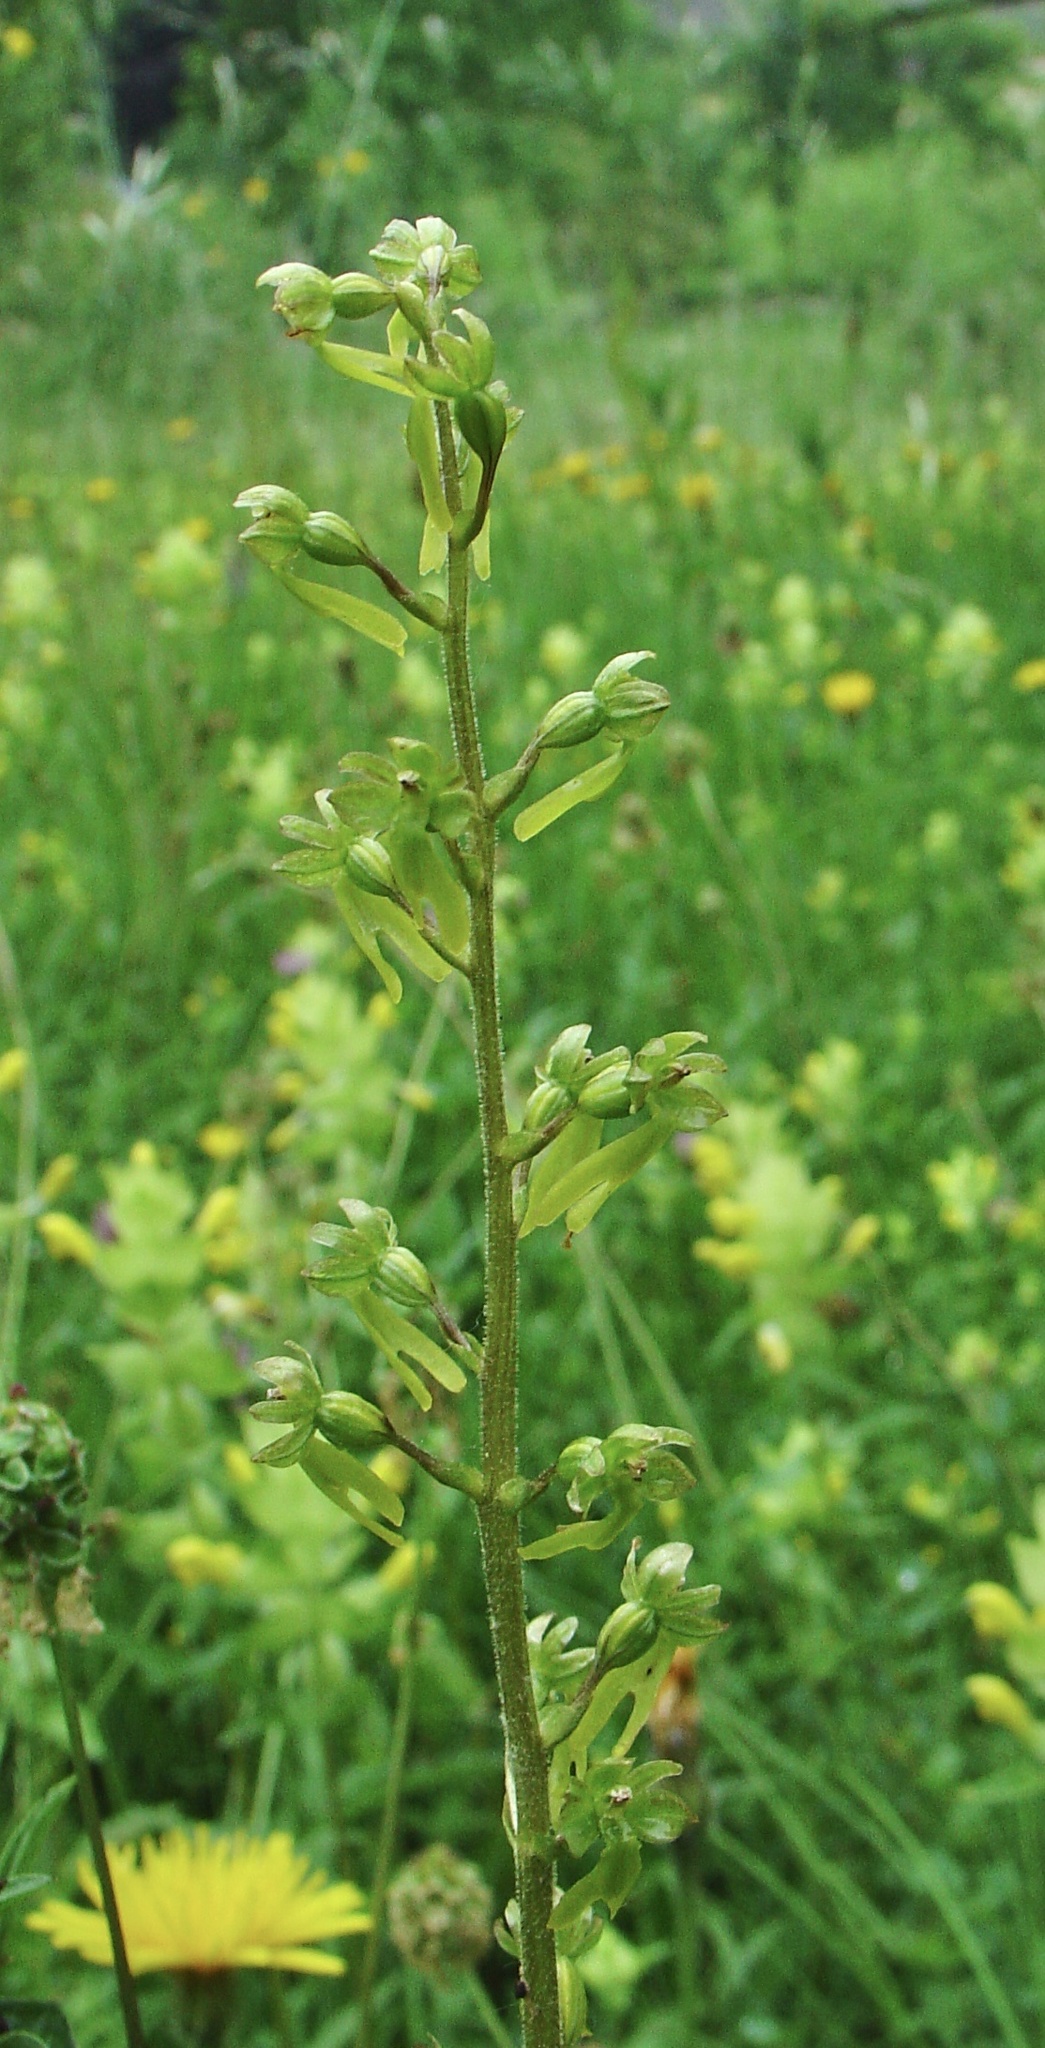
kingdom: Plantae
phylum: Tracheophyta
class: Liliopsida
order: Asparagales
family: Orchidaceae
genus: Neottia
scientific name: Neottia ovata
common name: Common twayblade
